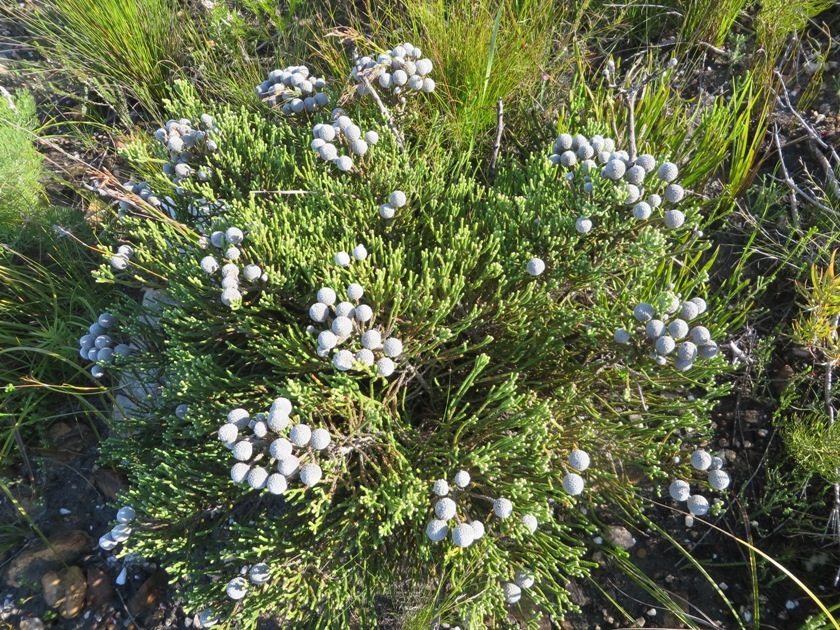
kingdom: Plantae
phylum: Tracheophyta
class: Magnoliopsida
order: Bruniales
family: Bruniaceae
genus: Brunia
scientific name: Brunia laevis
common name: Silver brunia
